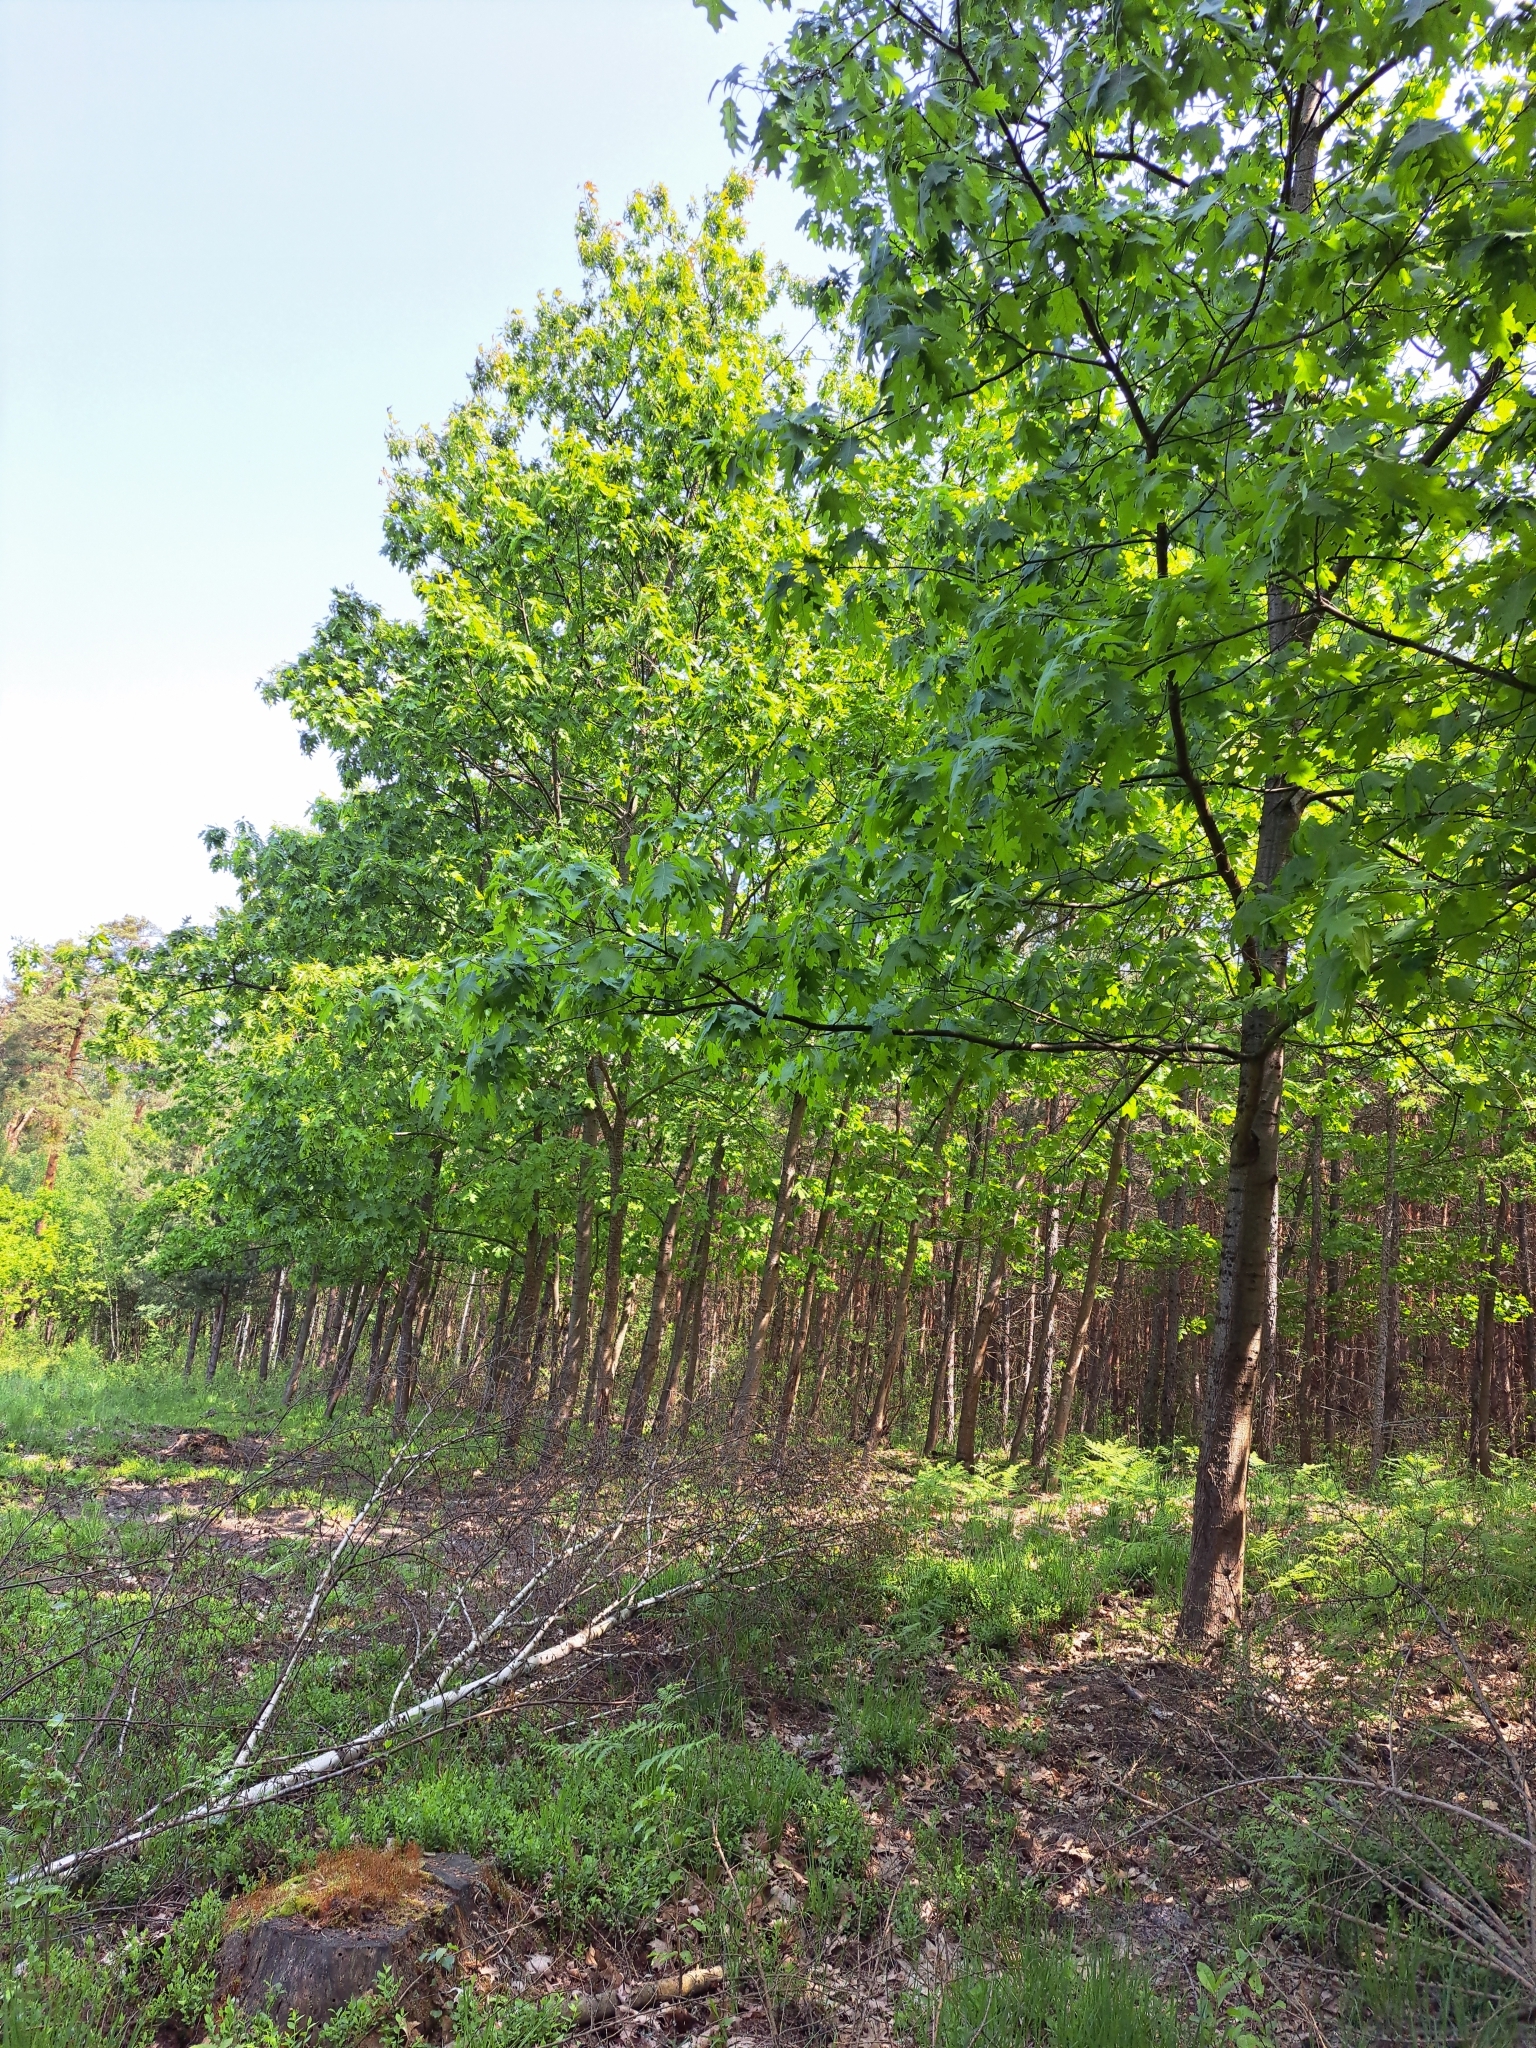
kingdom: Plantae
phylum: Tracheophyta
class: Magnoliopsida
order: Fagales
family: Fagaceae
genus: Quercus
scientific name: Quercus rubra
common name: Red oak
